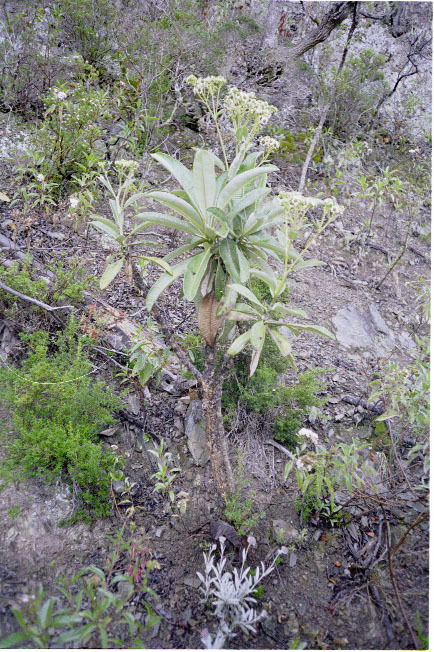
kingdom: Plantae
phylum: Tracheophyta
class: Magnoliopsida
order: Asterales
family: Asteraceae
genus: Espeletia
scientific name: Espeletia neriifolia
